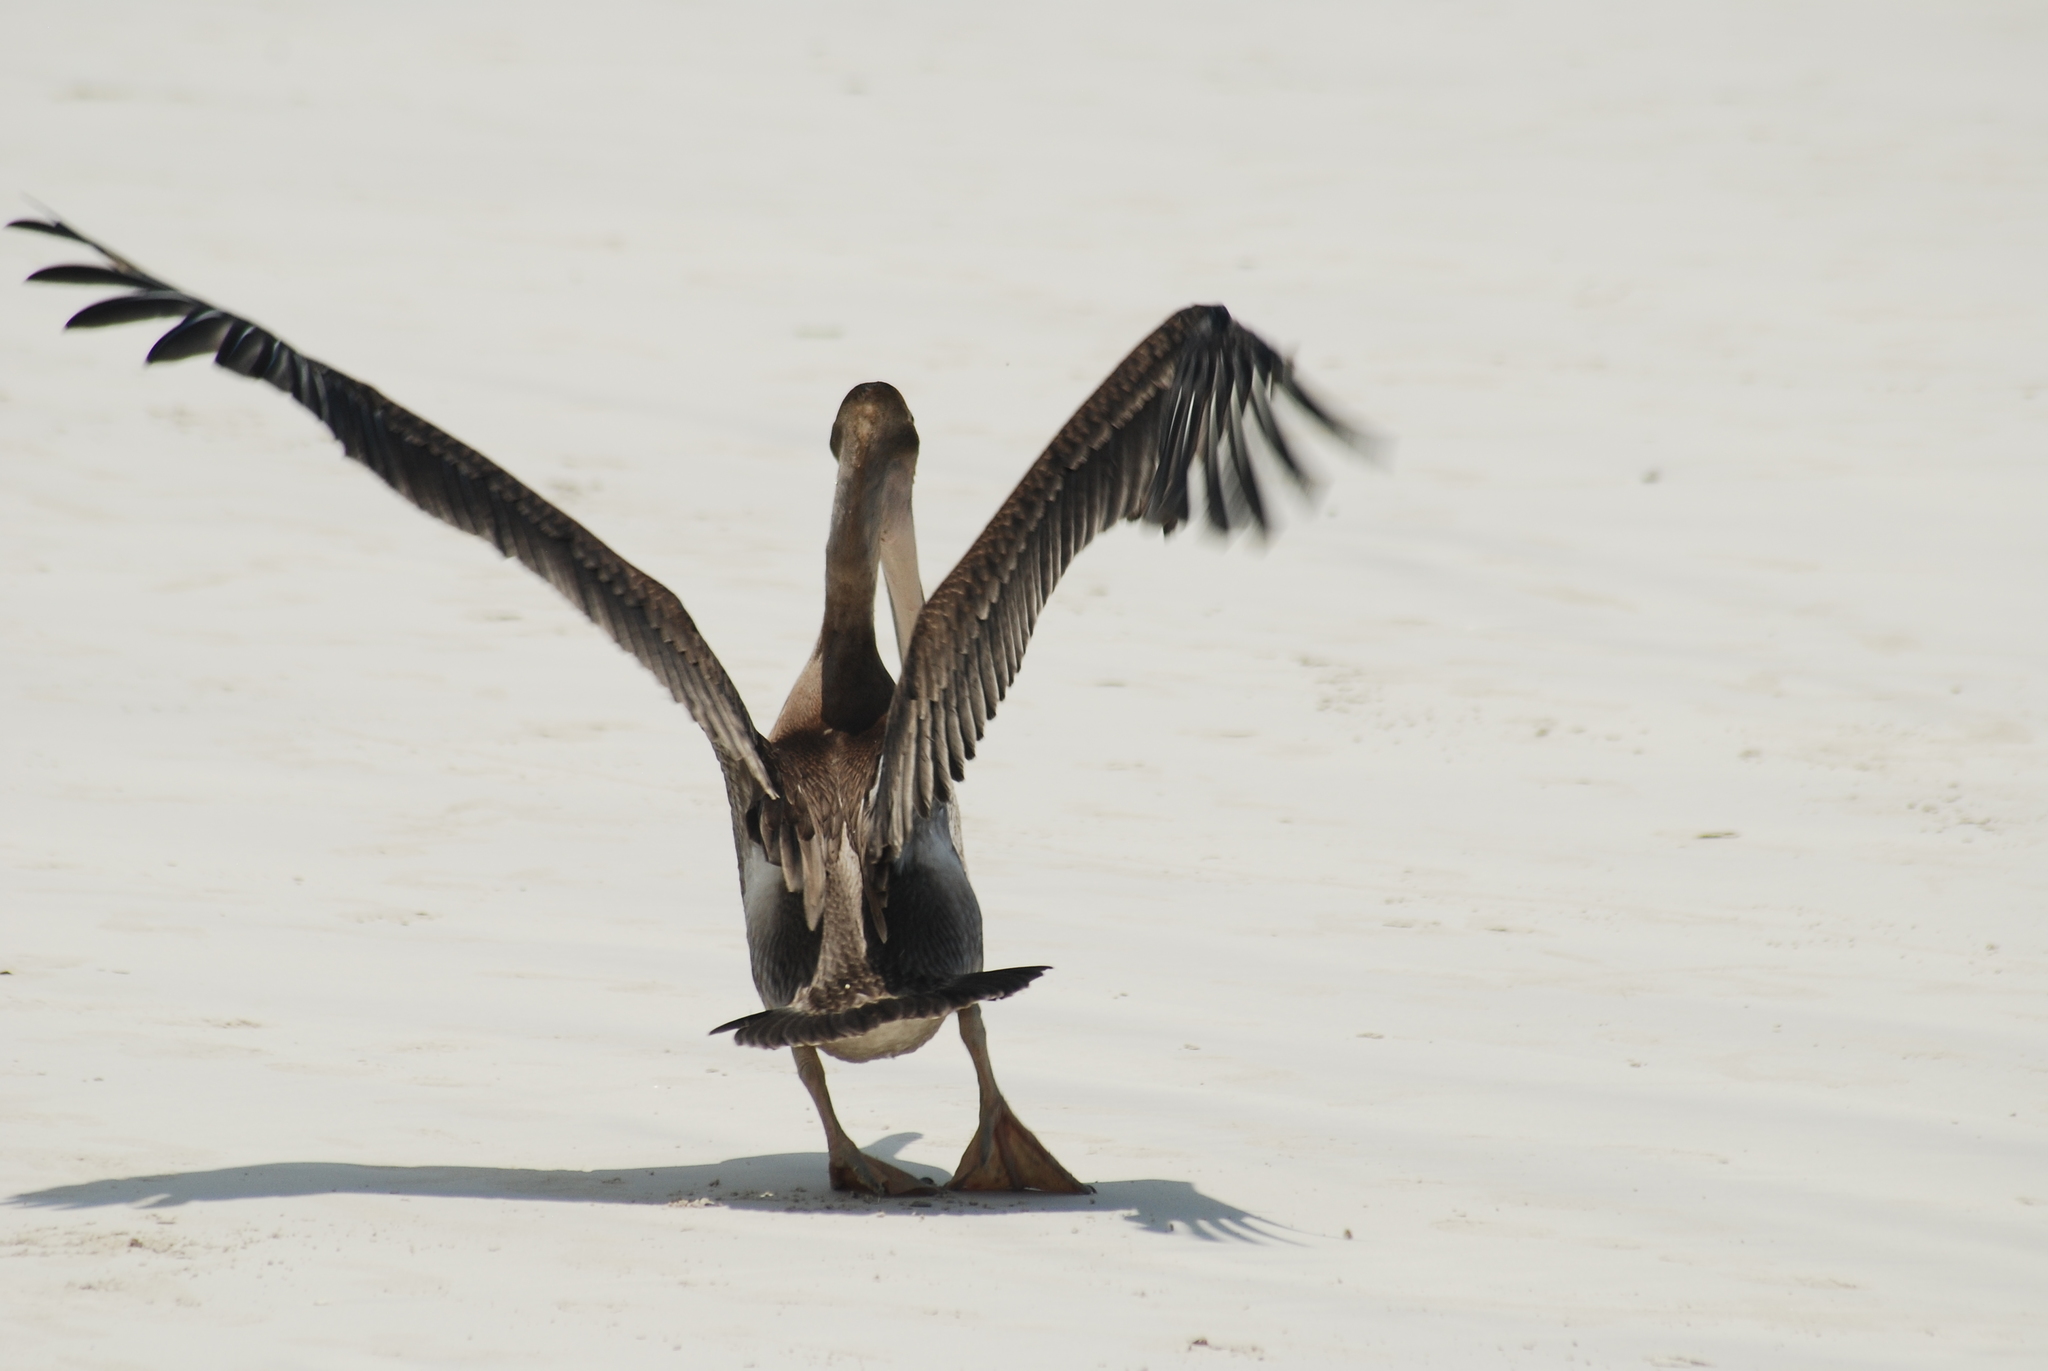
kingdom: Animalia
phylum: Chordata
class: Aves
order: Pelecaniformes
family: Pelecanidae
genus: Pelecanus
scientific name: Pelecanus occidentalis
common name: Brown pelican
